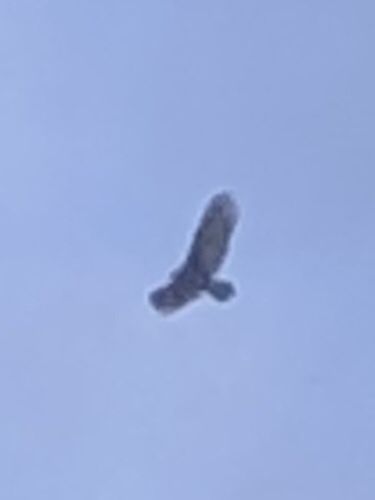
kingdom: Animalia
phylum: Chordata
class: Aves
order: Accipitriformes
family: Cathartidae
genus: Cathartes
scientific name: Cathartes aura
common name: Turkey vulture
